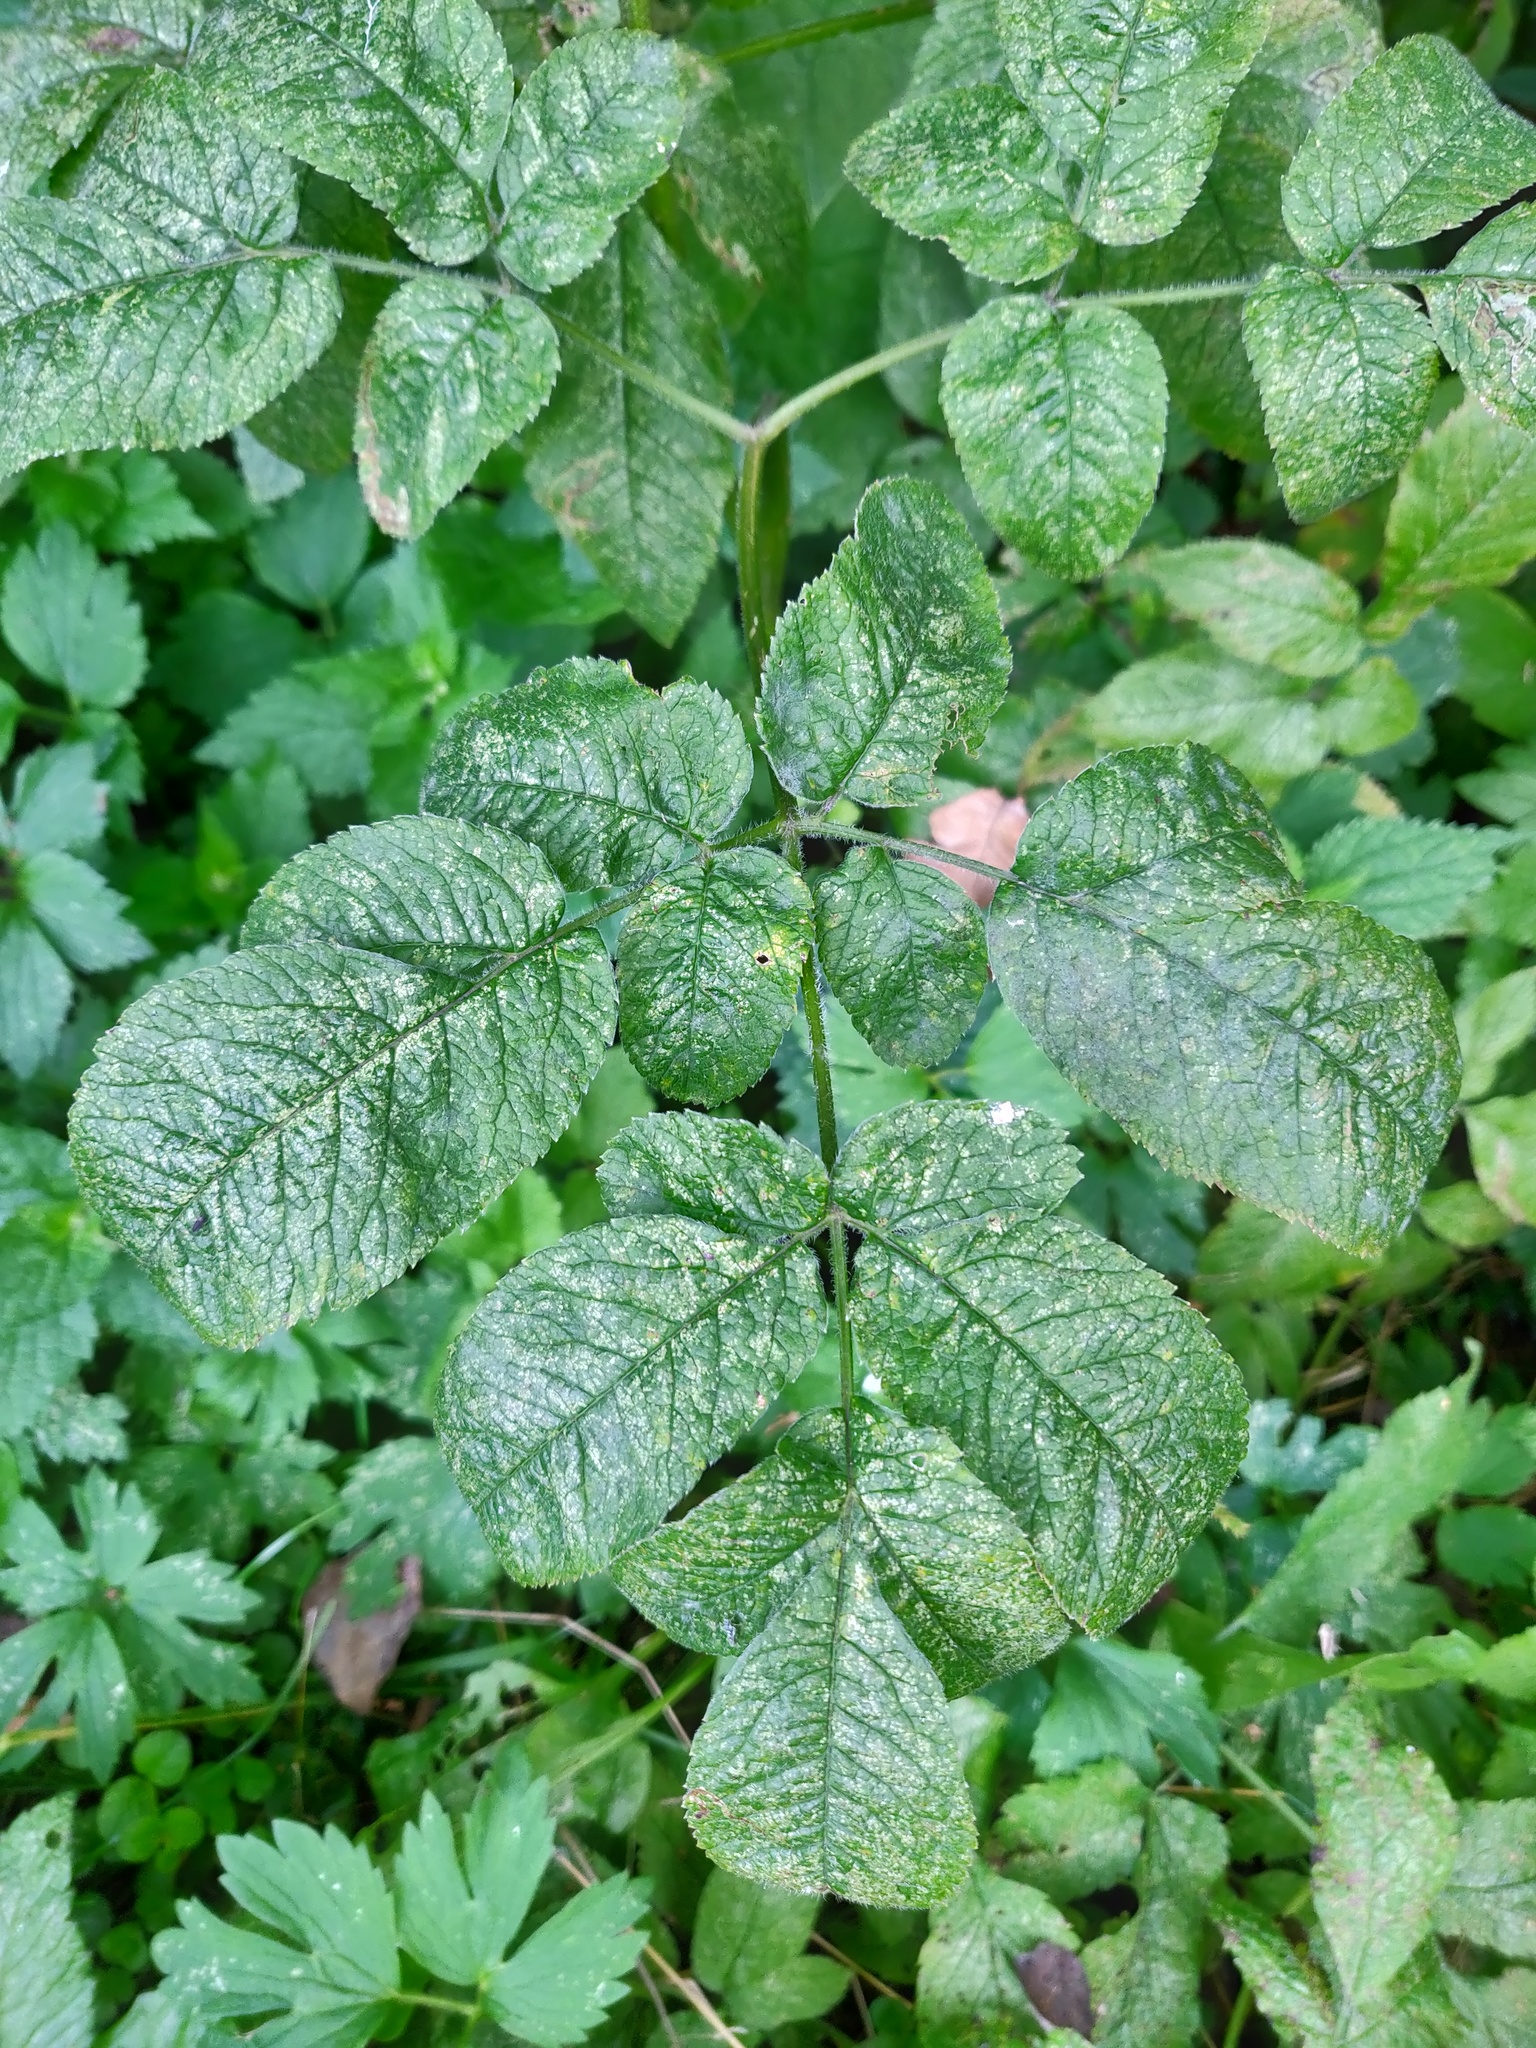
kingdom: Plantae
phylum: Tracheophyta
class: Magnoliopsida
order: Apiales
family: Apiaceae
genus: Chaerophyllum
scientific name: Chaerophyllum aromaticum
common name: Broadleaf chervil
